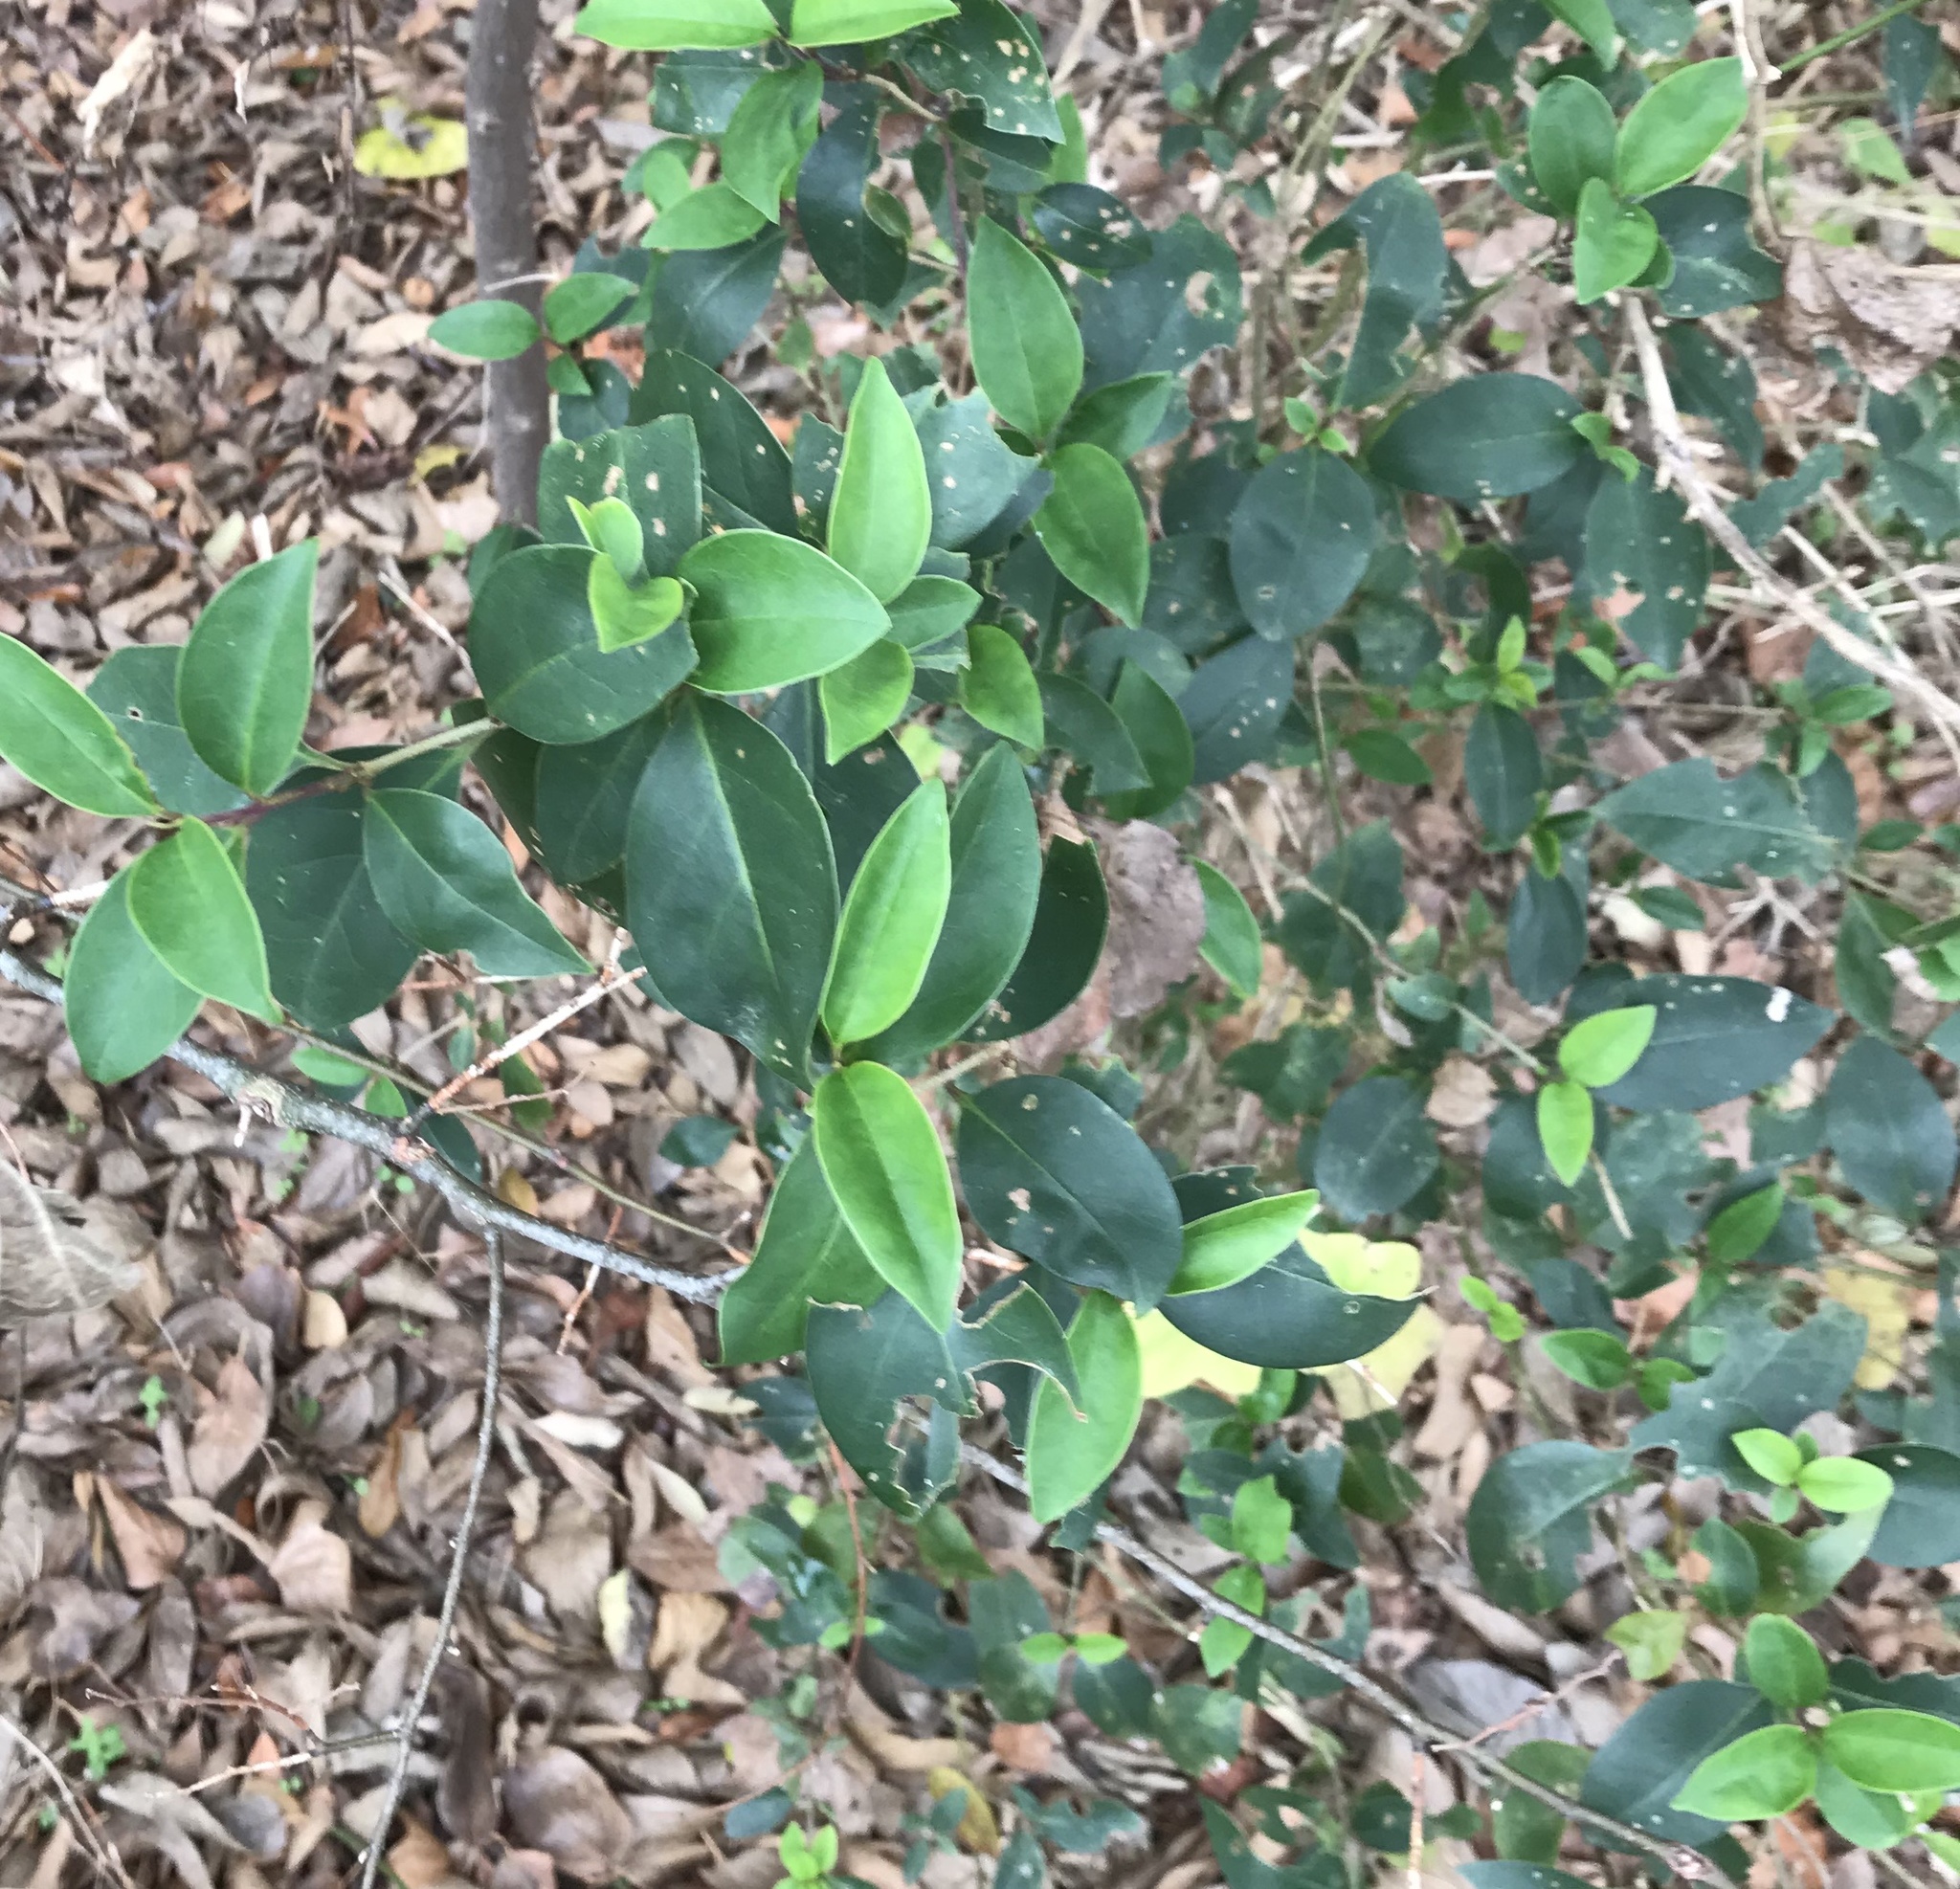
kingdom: Plantae
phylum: Tracheophyta
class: Magnoliopsida
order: Lamiales
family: Oleaceae
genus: Ligustrum
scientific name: Ligustrum lucidum
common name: Glossy privet
